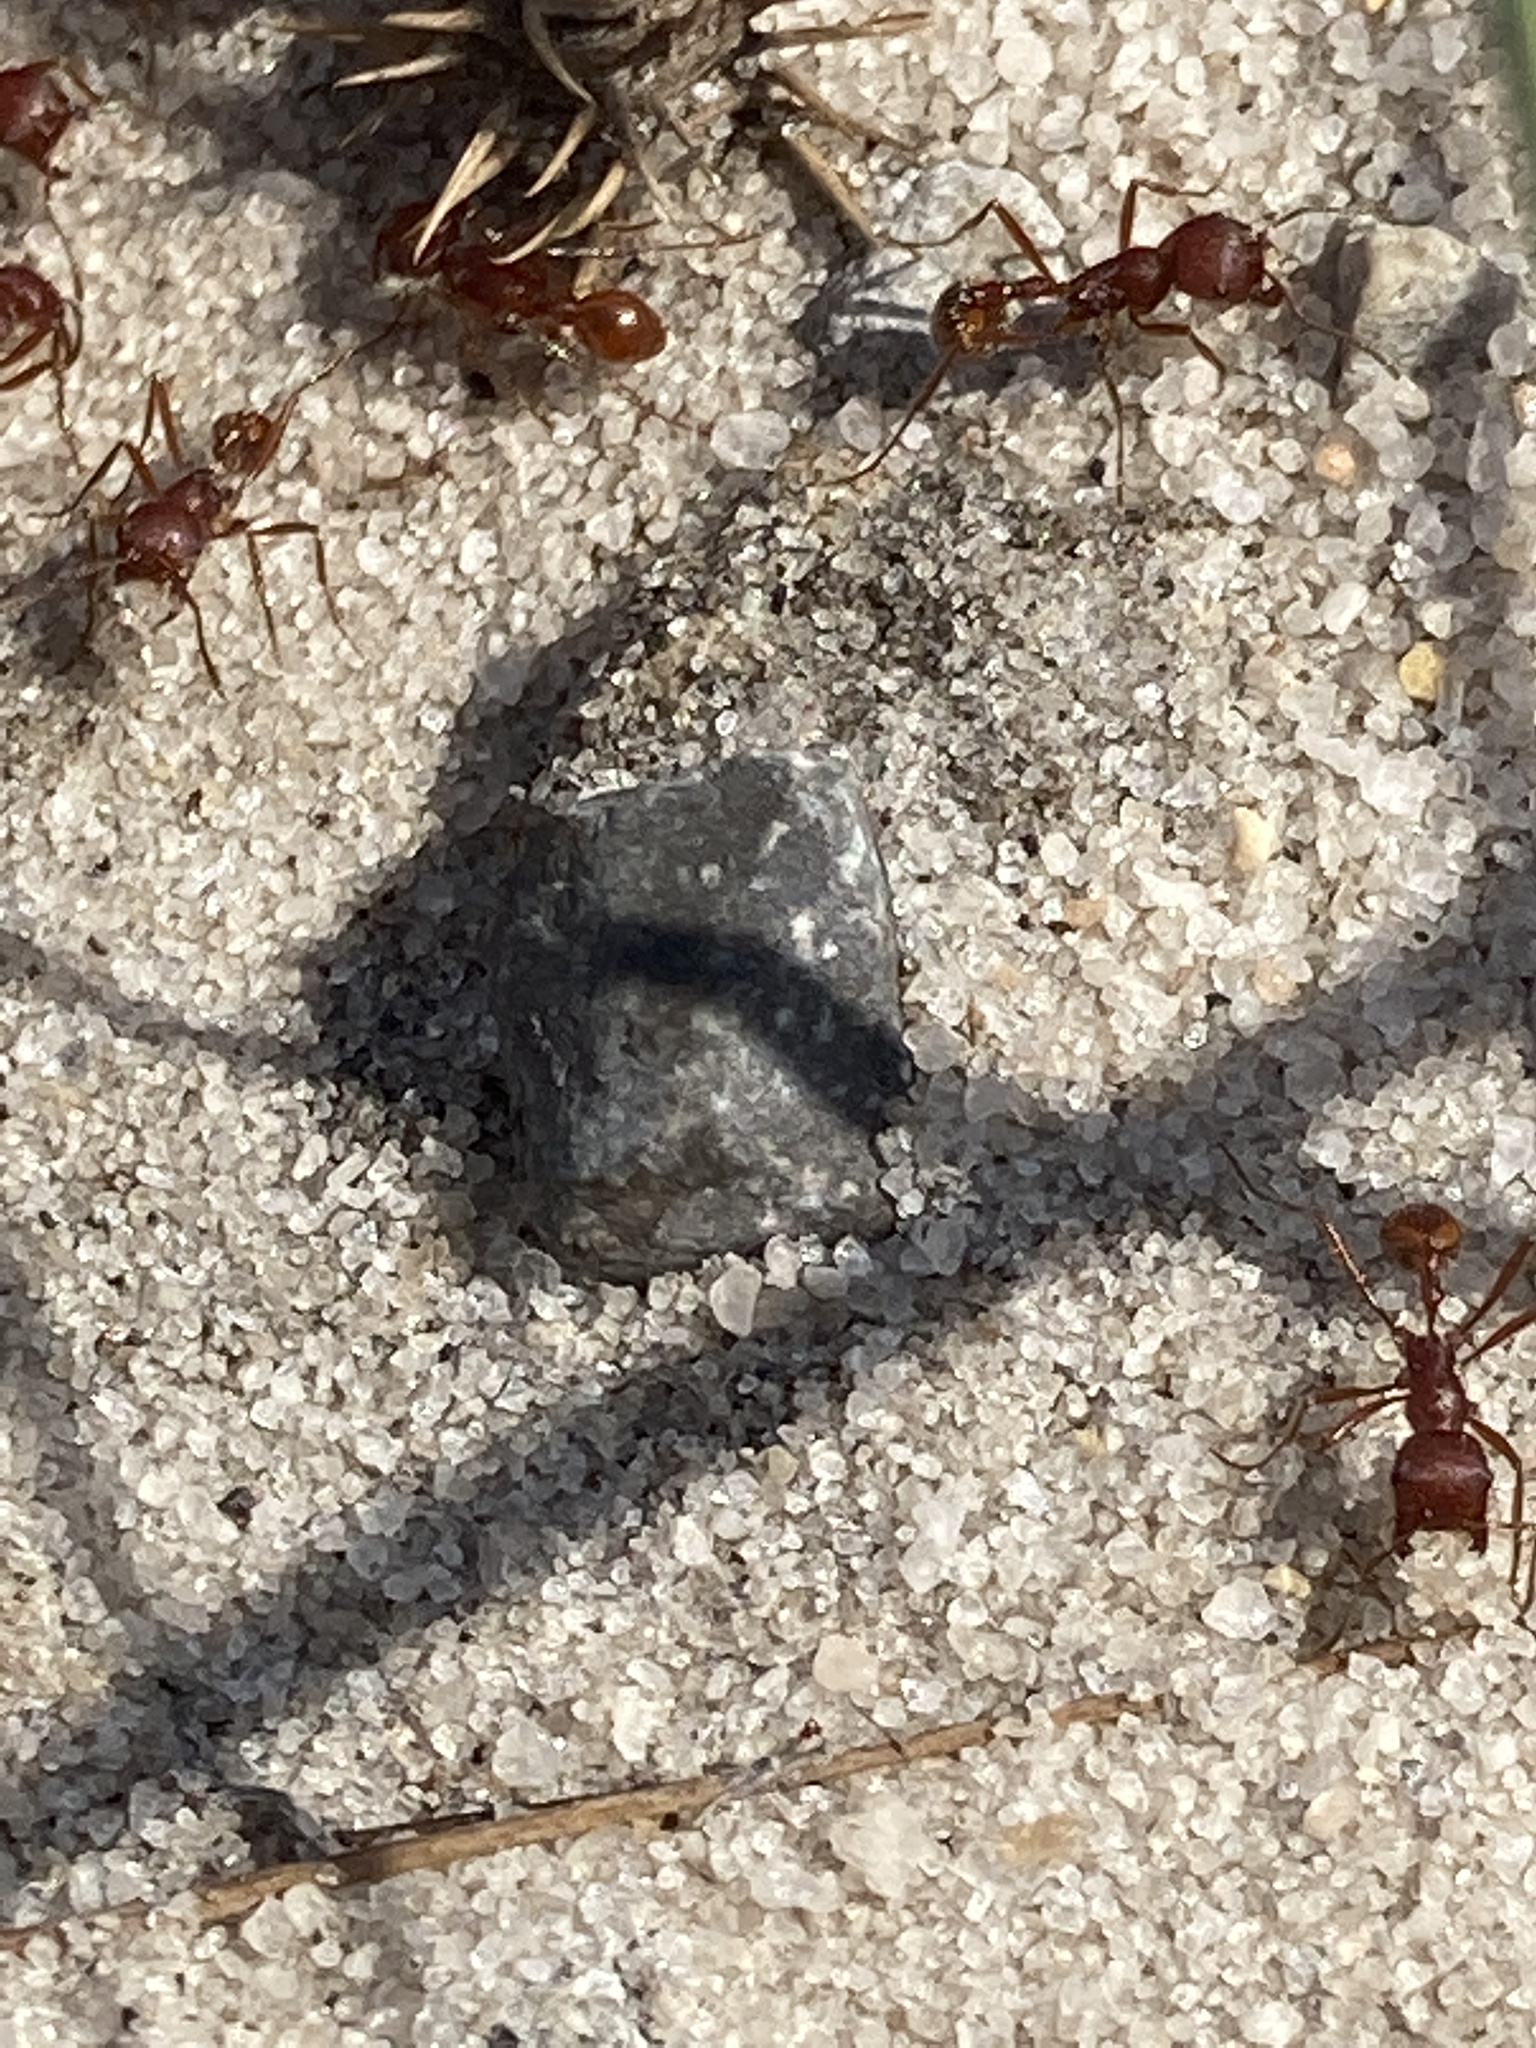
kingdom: Animalia
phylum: Arthropoda
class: Insecta
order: Hymenoptera
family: Formicidae
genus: Pogonomyrmex
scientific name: Pogonomyrmex badius
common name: Florida harvester ant
